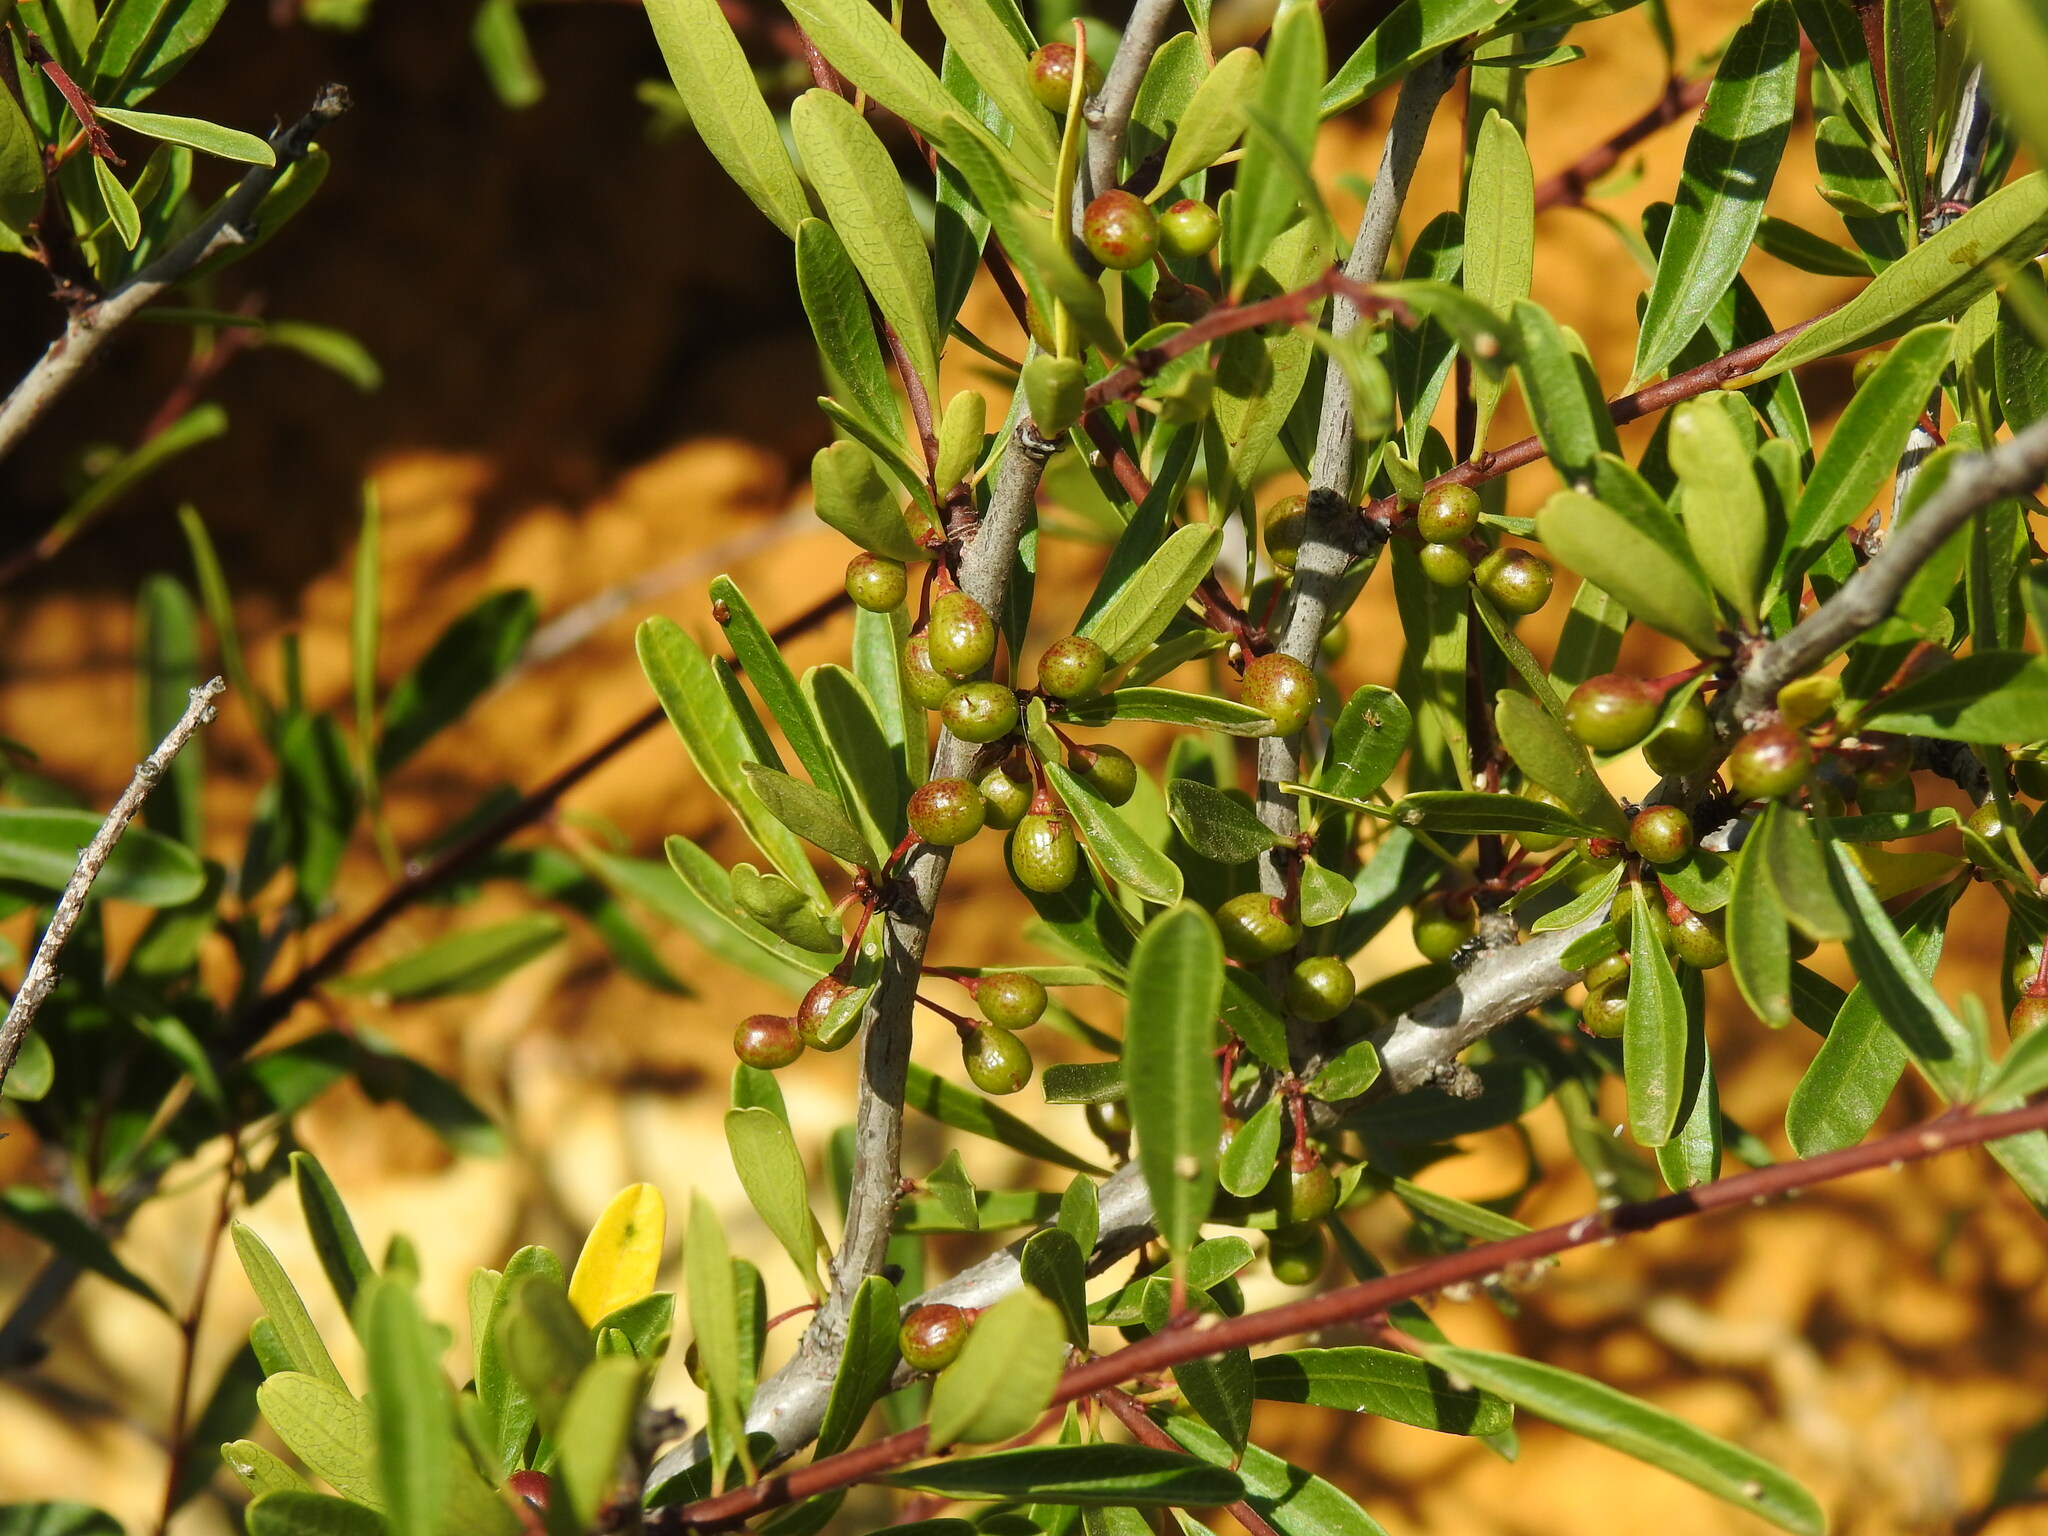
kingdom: Plantae
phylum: Tracheophyta
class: Magnoliopsida
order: Rosales
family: Rhamnaceae
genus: Rhamnus
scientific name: Rhamnus oleoides
